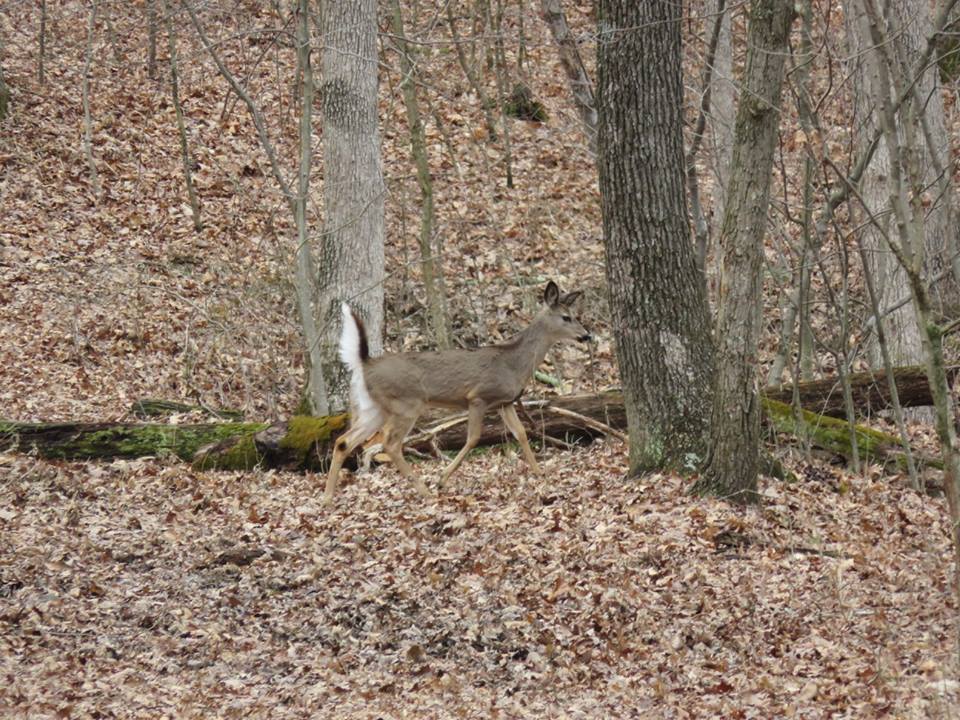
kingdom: Animalia
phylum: Chordata
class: Mammalia
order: Artiodactyla
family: Cervidae
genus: Odocoileus
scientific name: Odocoileus virginianus
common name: White-tailed deer
